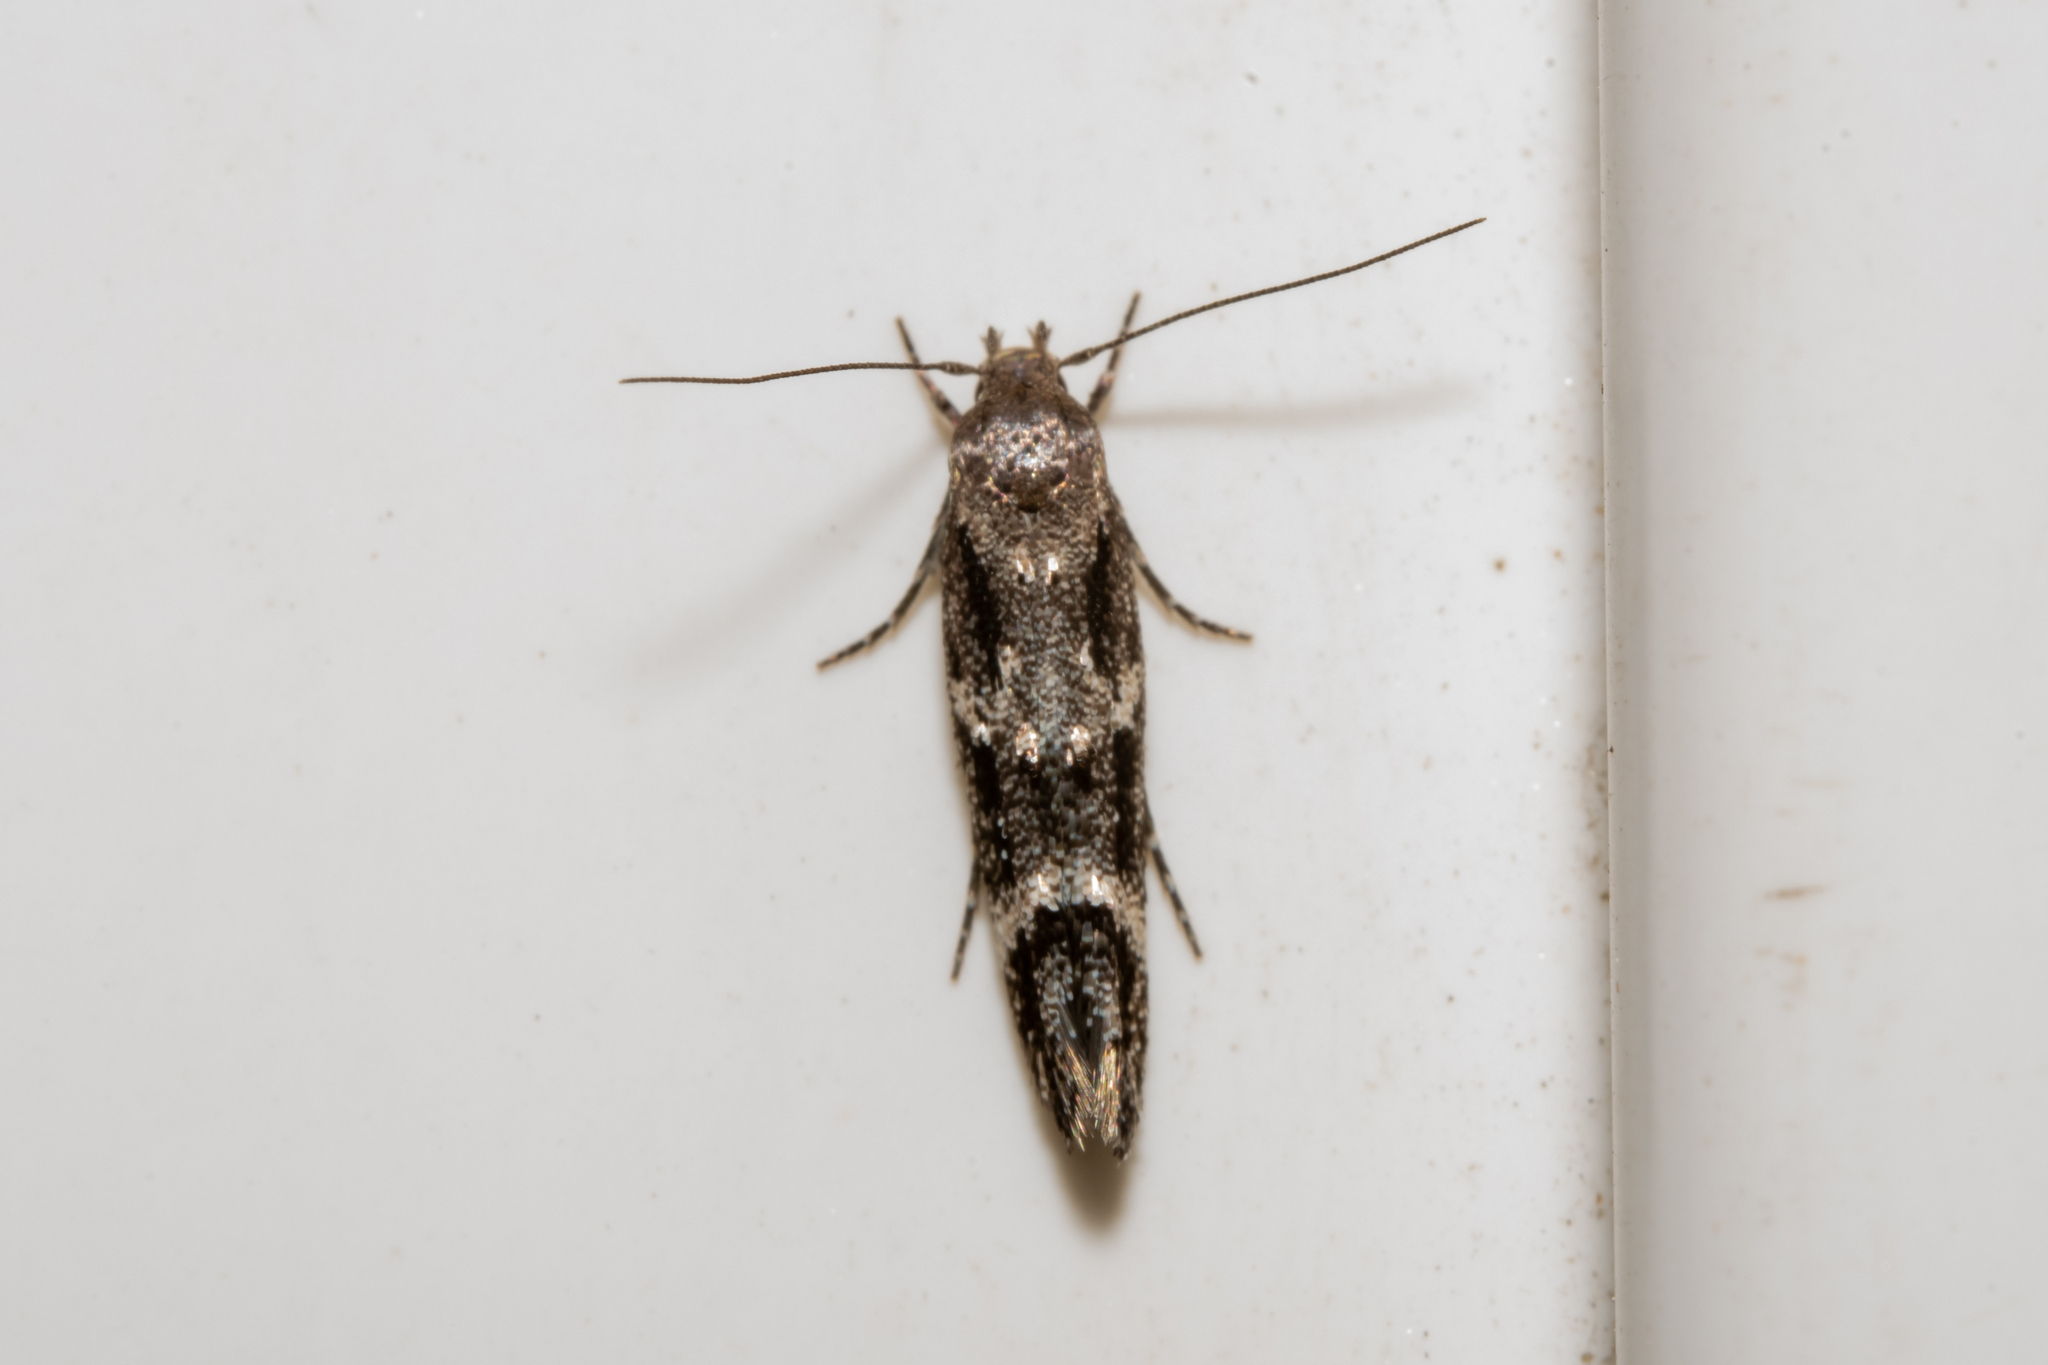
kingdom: Animalia
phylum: Arthropoda
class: Insecta
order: Lepidoptera
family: Momphidae
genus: Mompha
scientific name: Mompha subbistrigella
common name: Garden cosmet
